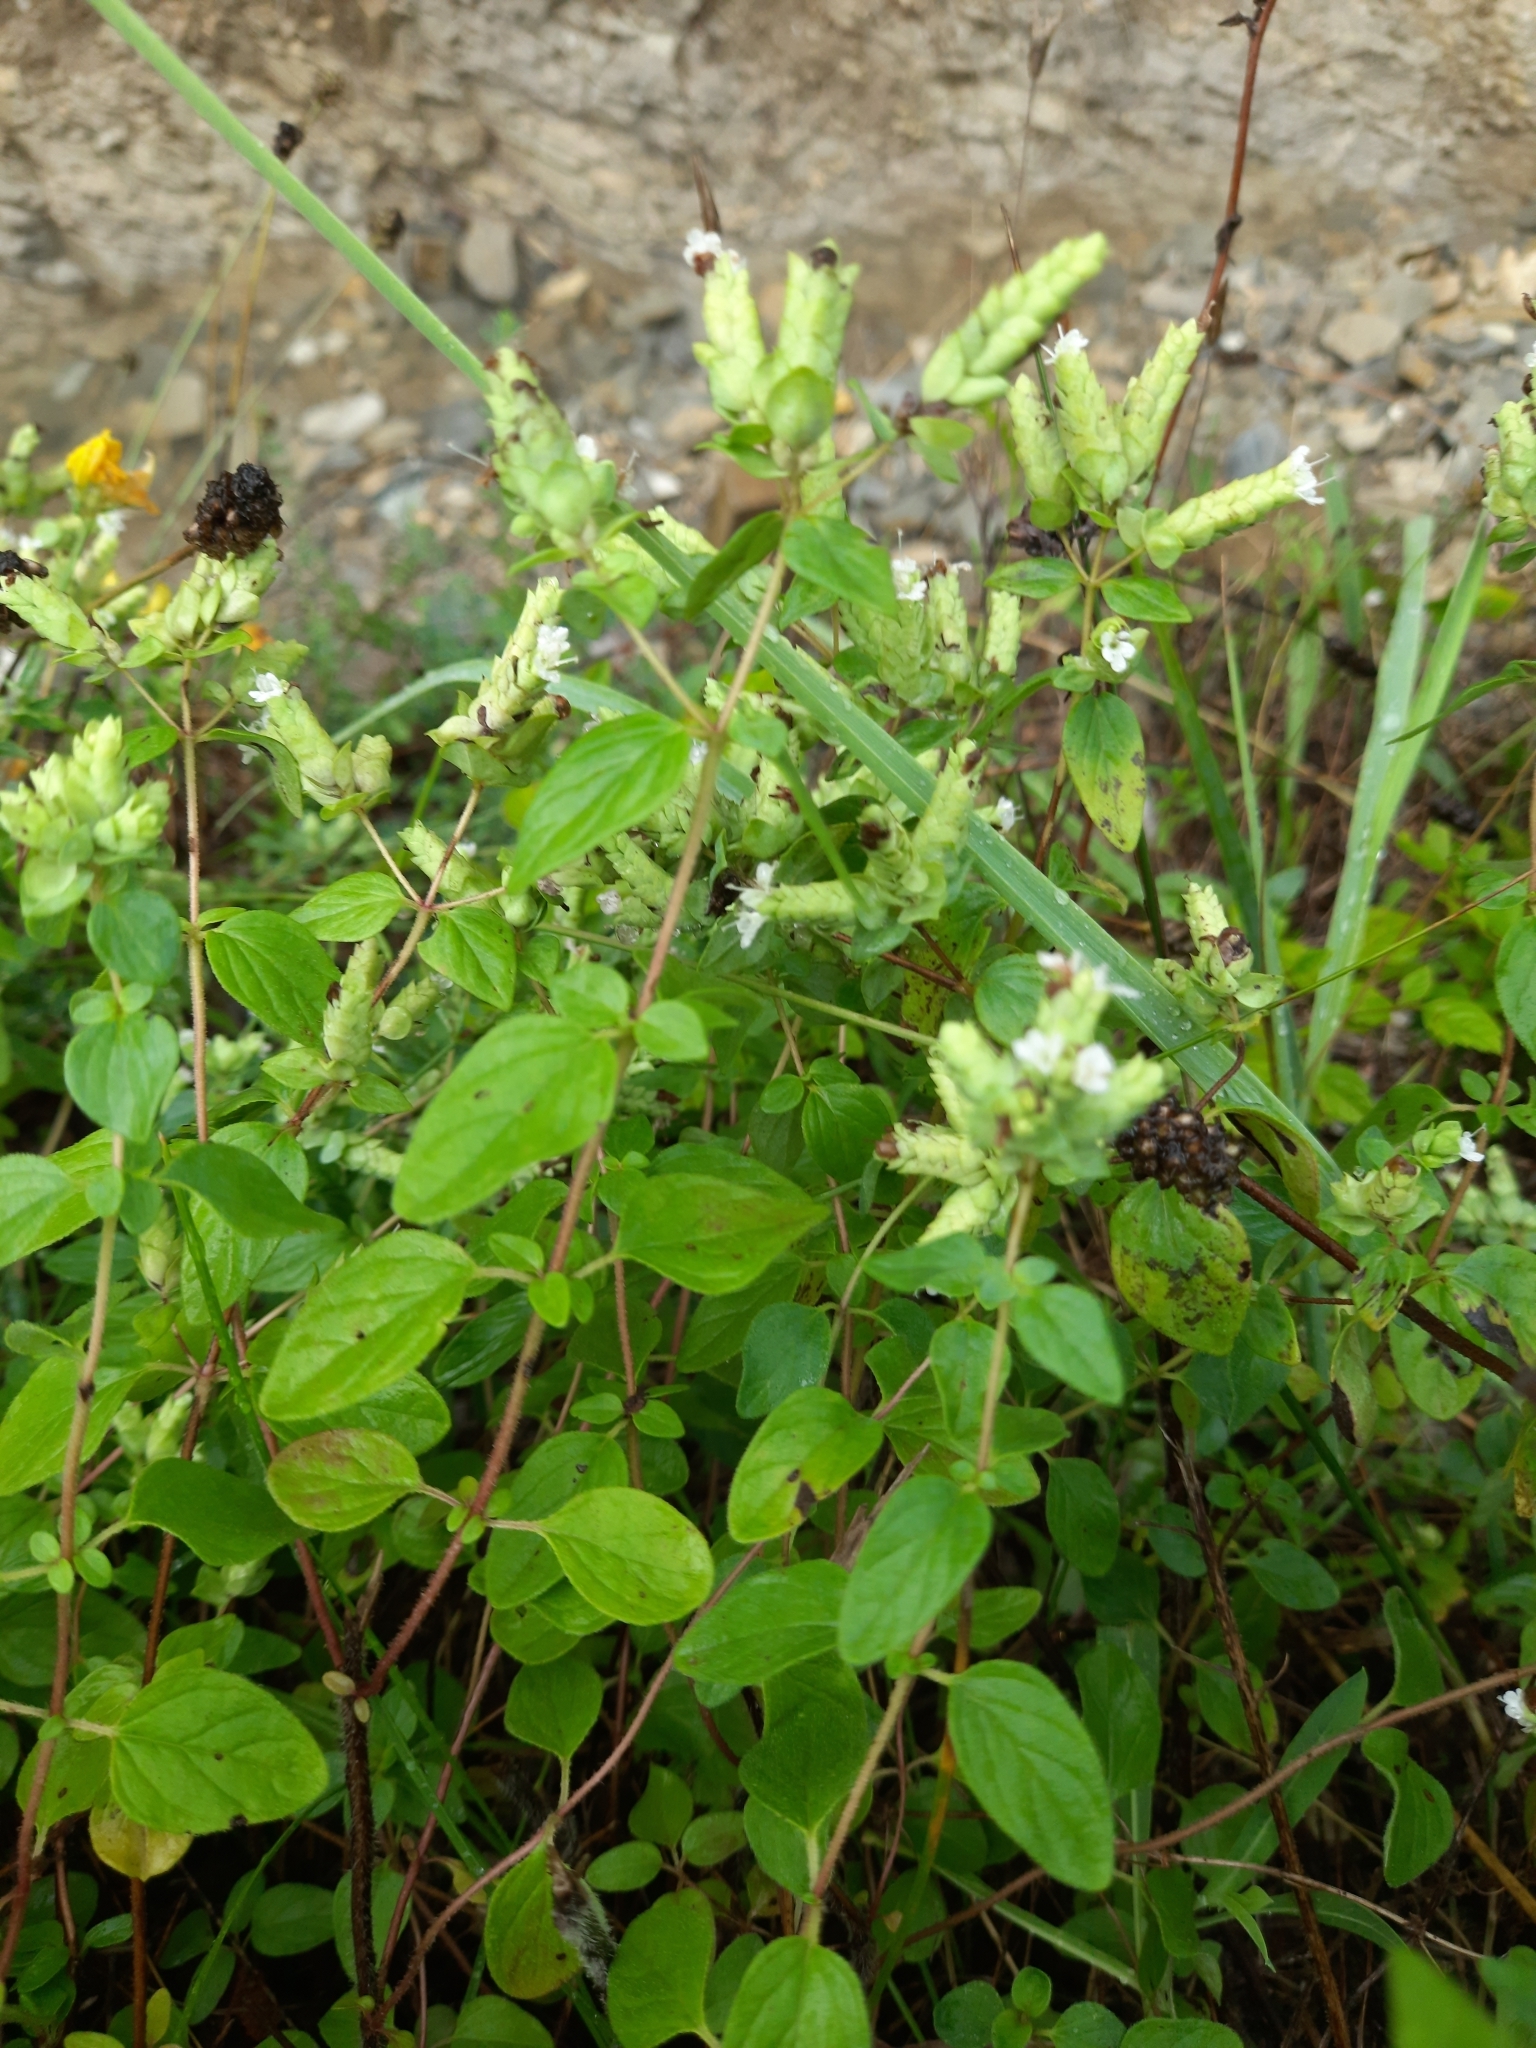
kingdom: Plantae
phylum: Tracheophyta
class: Magnoliopsida
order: Lamiales
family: Lamiaceae
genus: Origanum
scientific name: Origanum vulgare
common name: Wild marjoram
